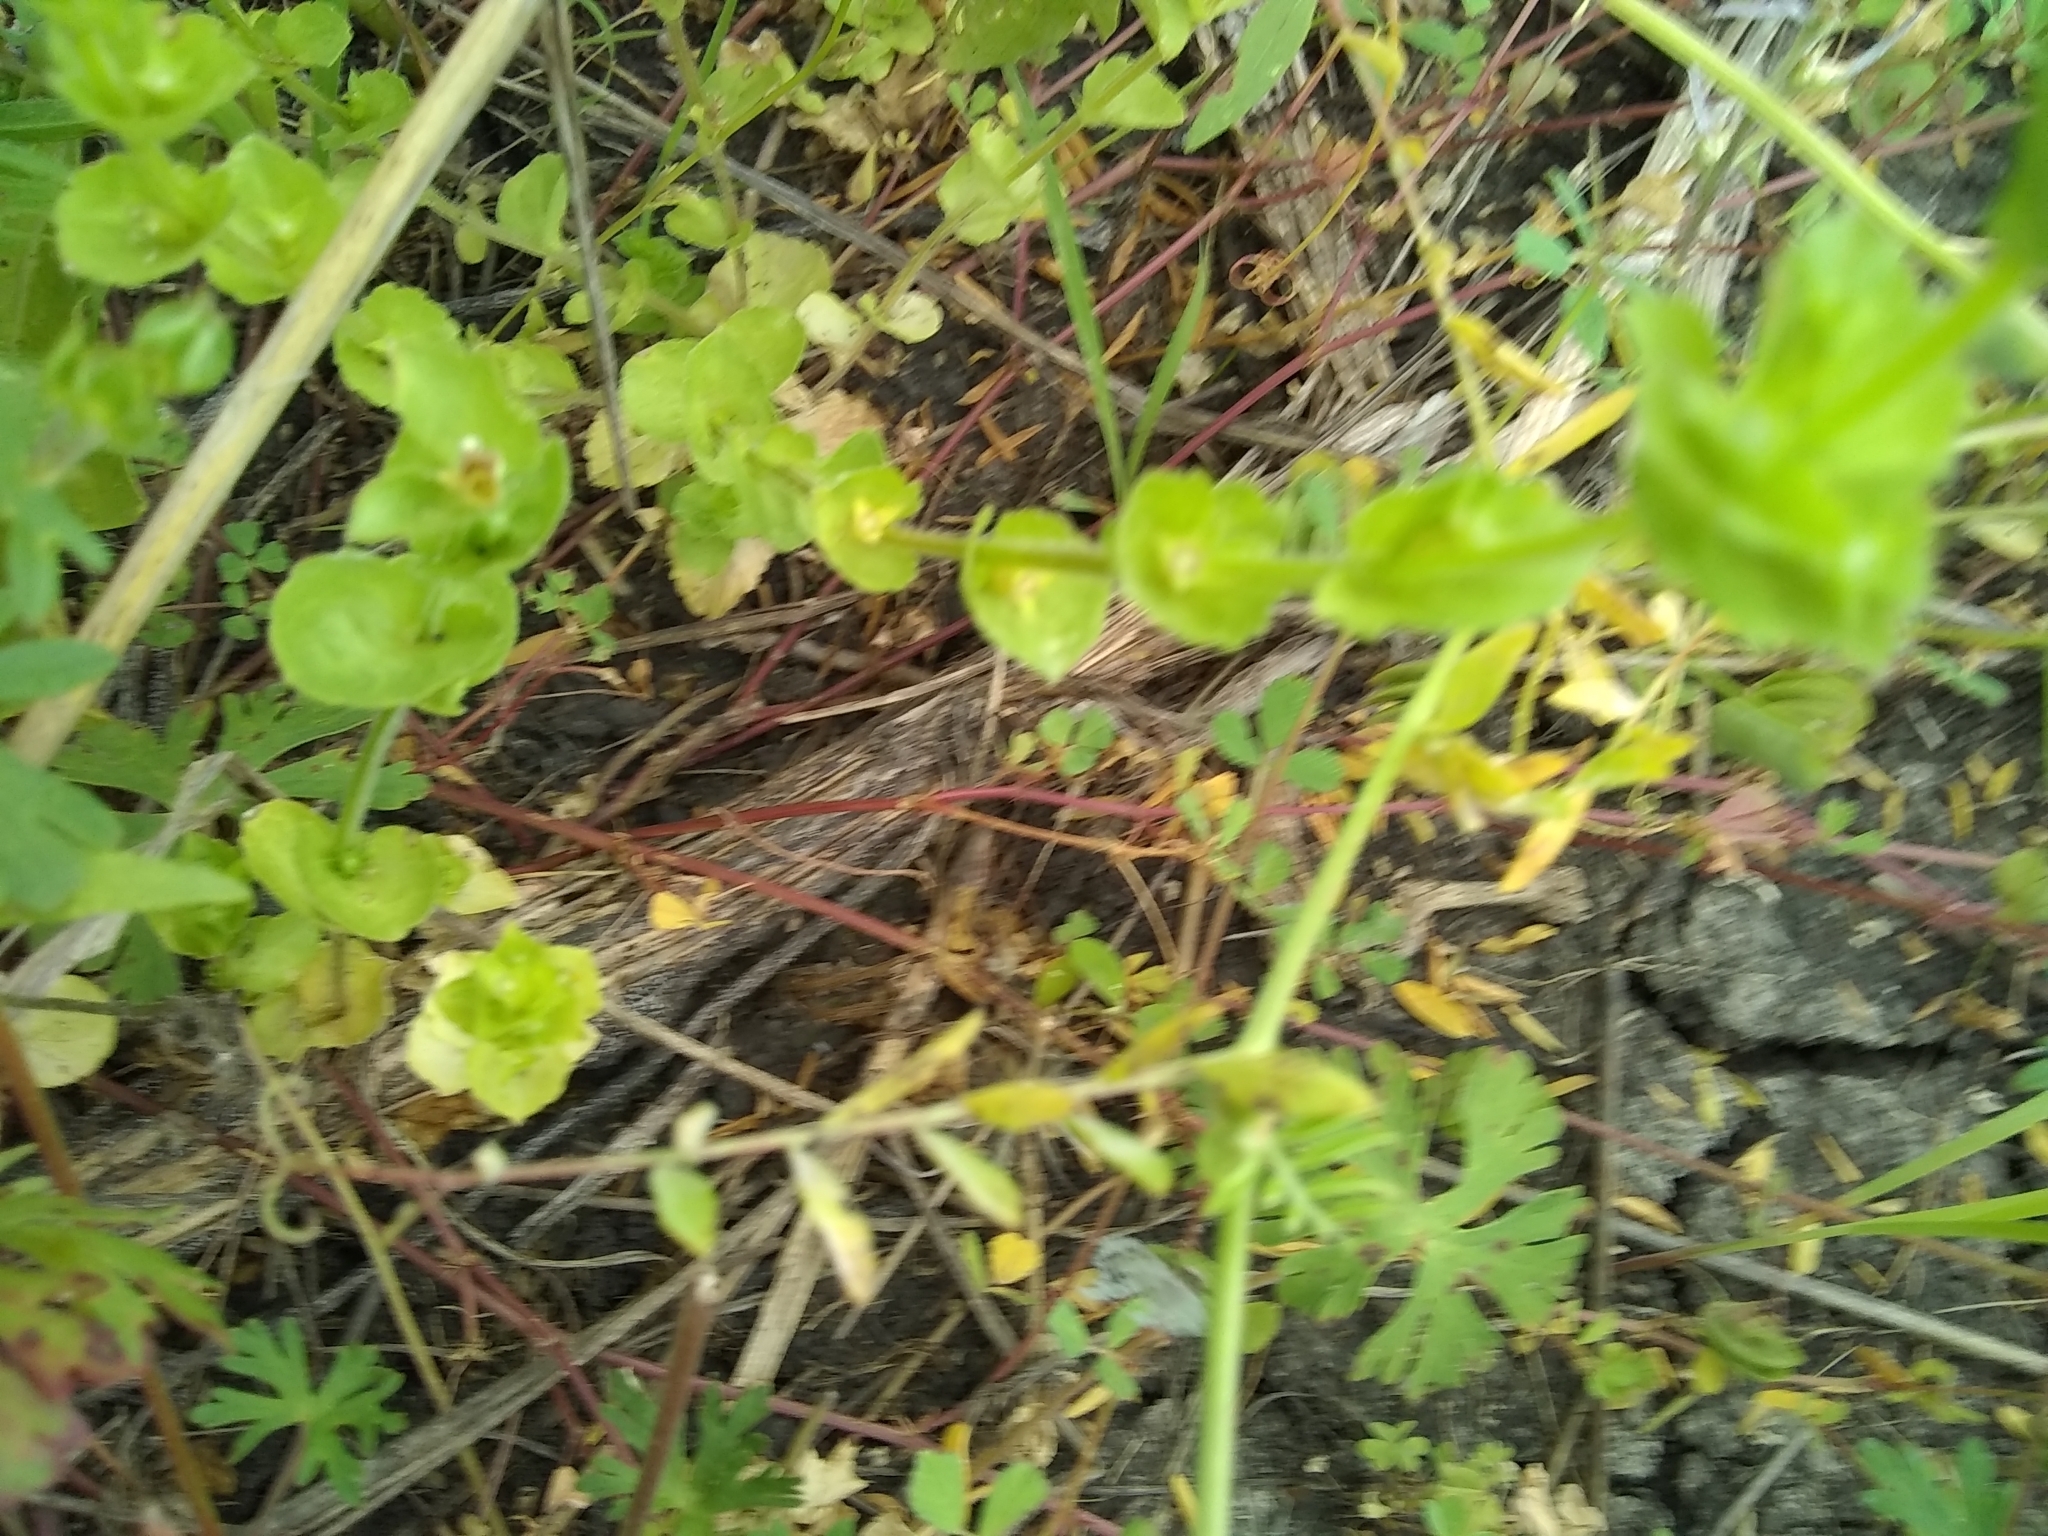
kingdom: Plantae
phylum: Tracheophyta
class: Magnoliopsida
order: Asterales
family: Campanulaceae
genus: Triodanis
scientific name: Triodanis perfoliata
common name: Clasping venus' looking-glass
